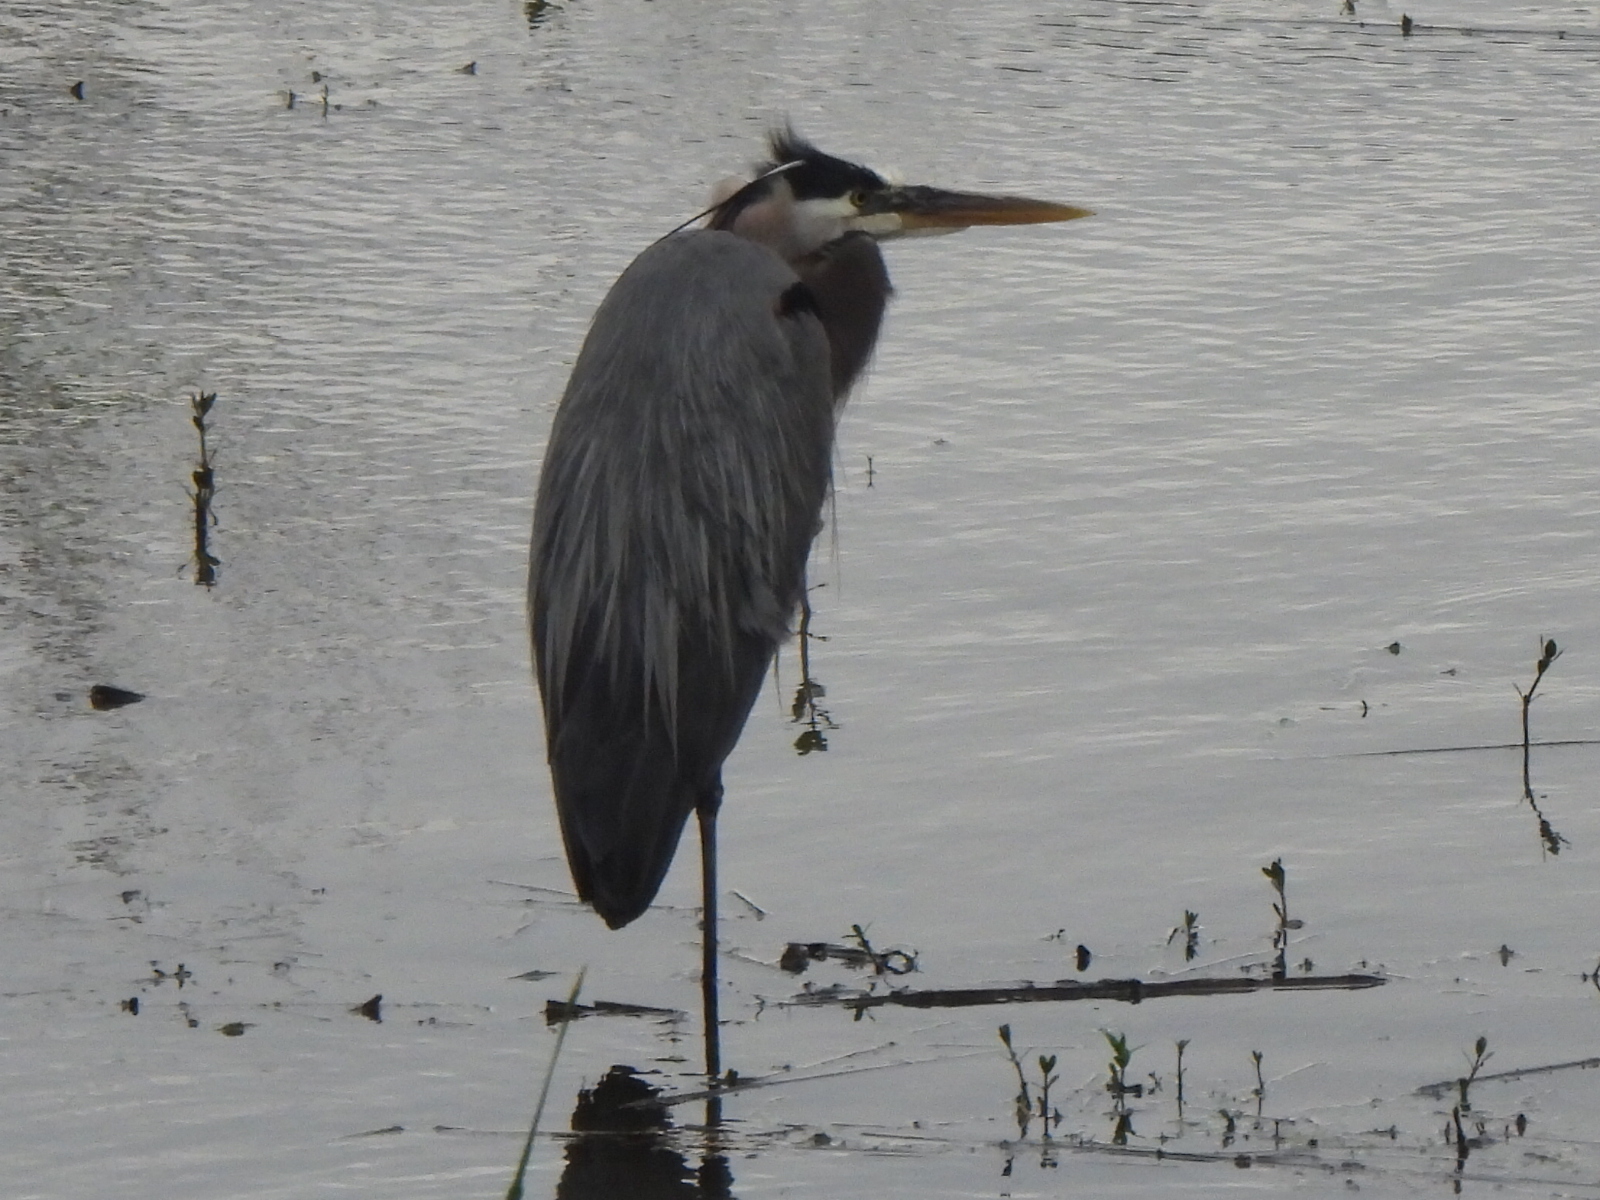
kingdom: Animalia
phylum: Chordata
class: Aves
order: Pelecaniformes
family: Ardeidae
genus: Ardea
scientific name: Ardea herodias
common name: Great blue heron
